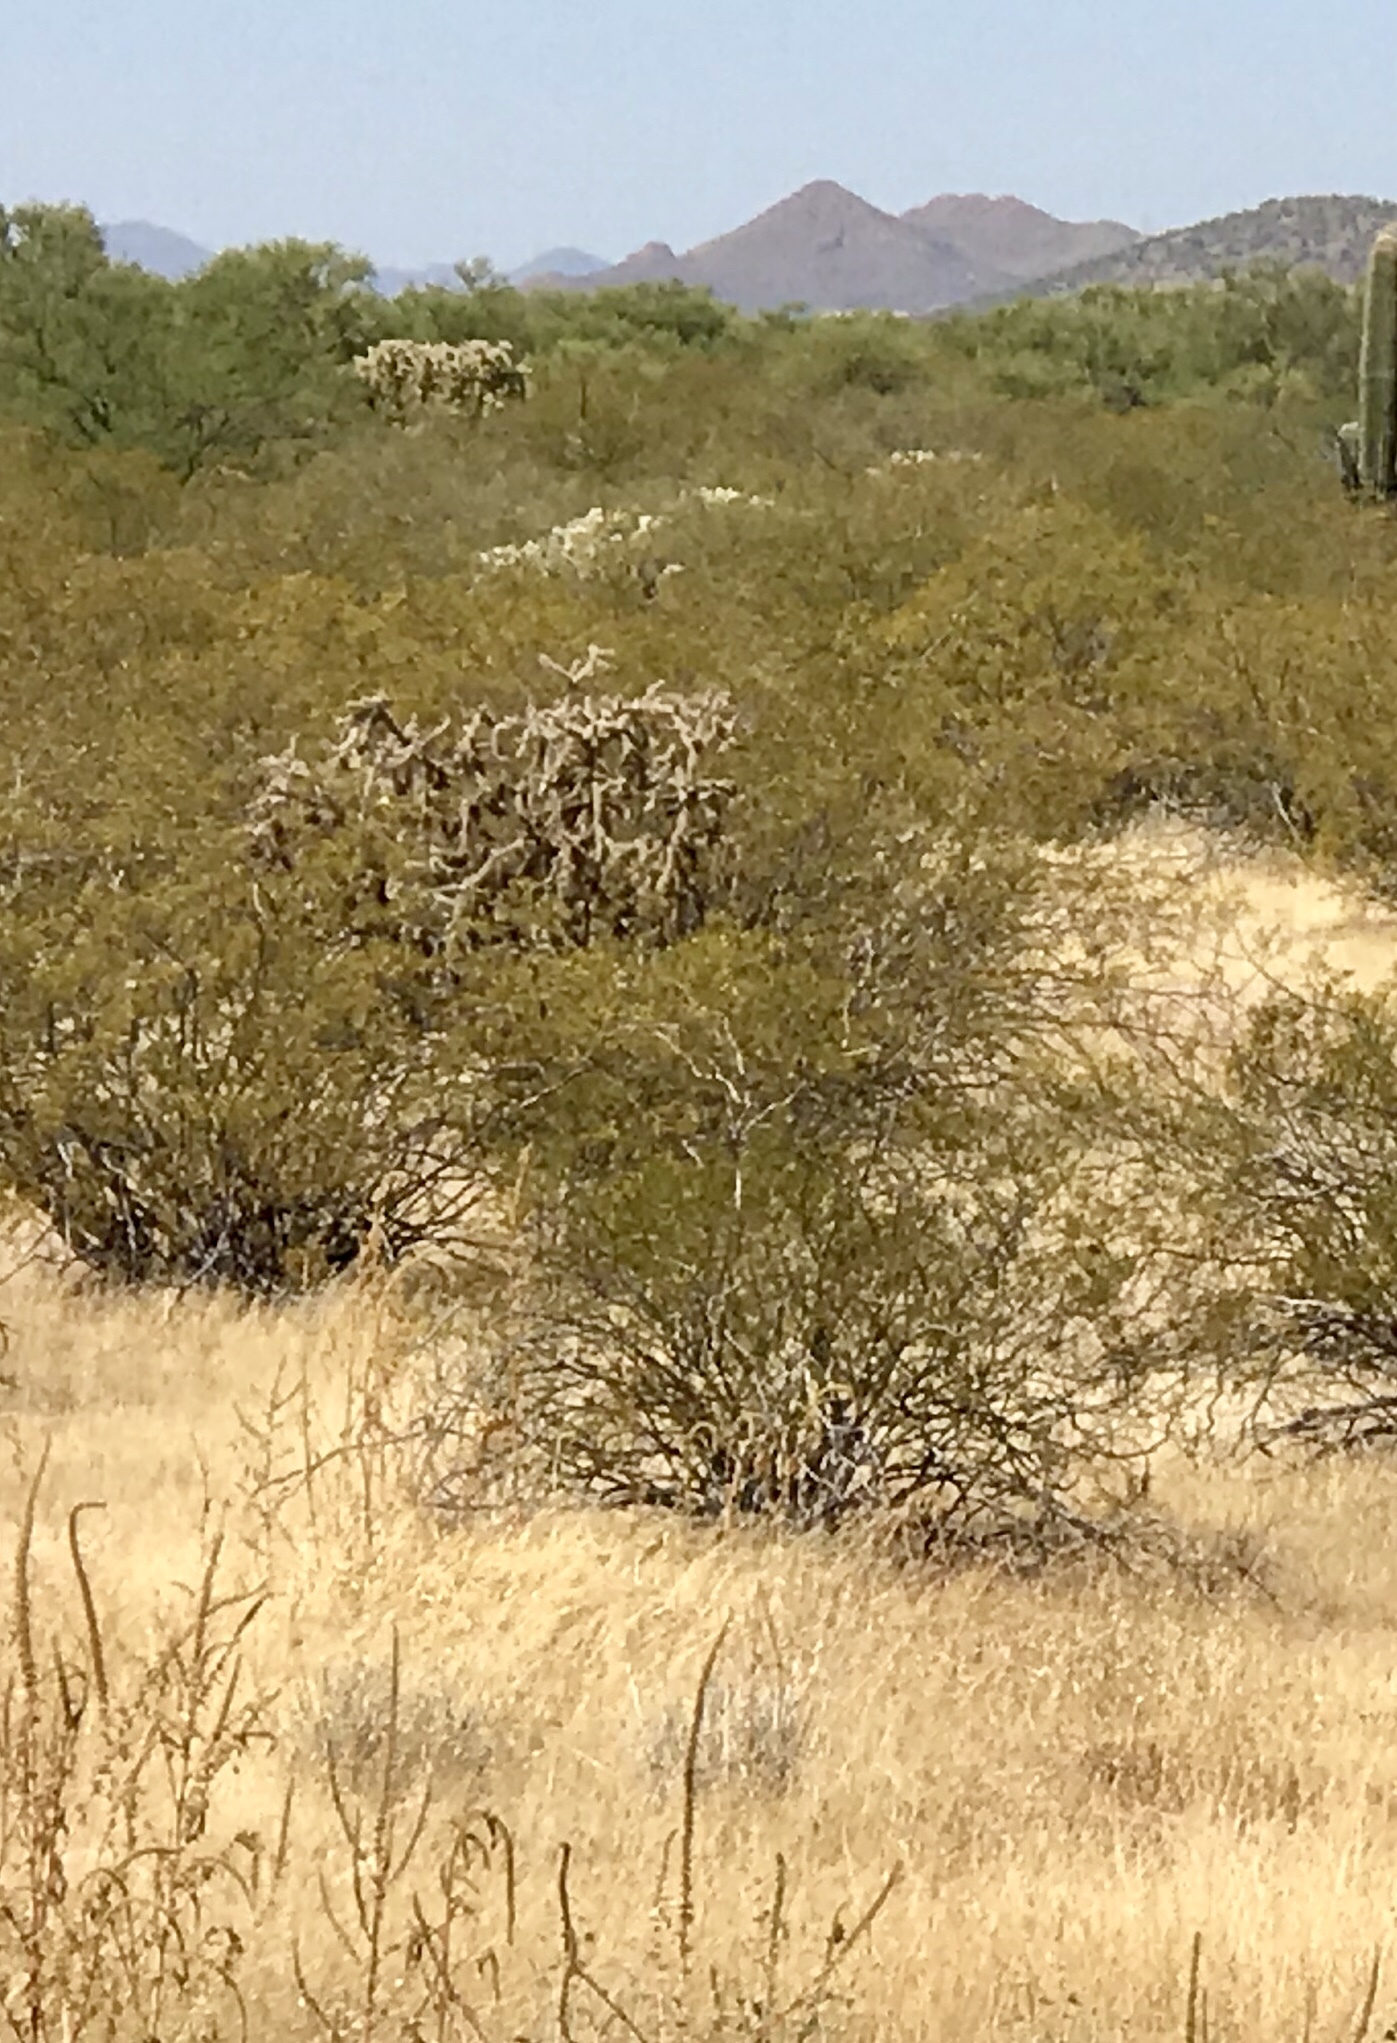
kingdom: Plantae
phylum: Tracheophyta
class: Magnoliopsida
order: Zygophyllales
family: Zygophyllaceae
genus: Larrea
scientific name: Larrea tridentata
